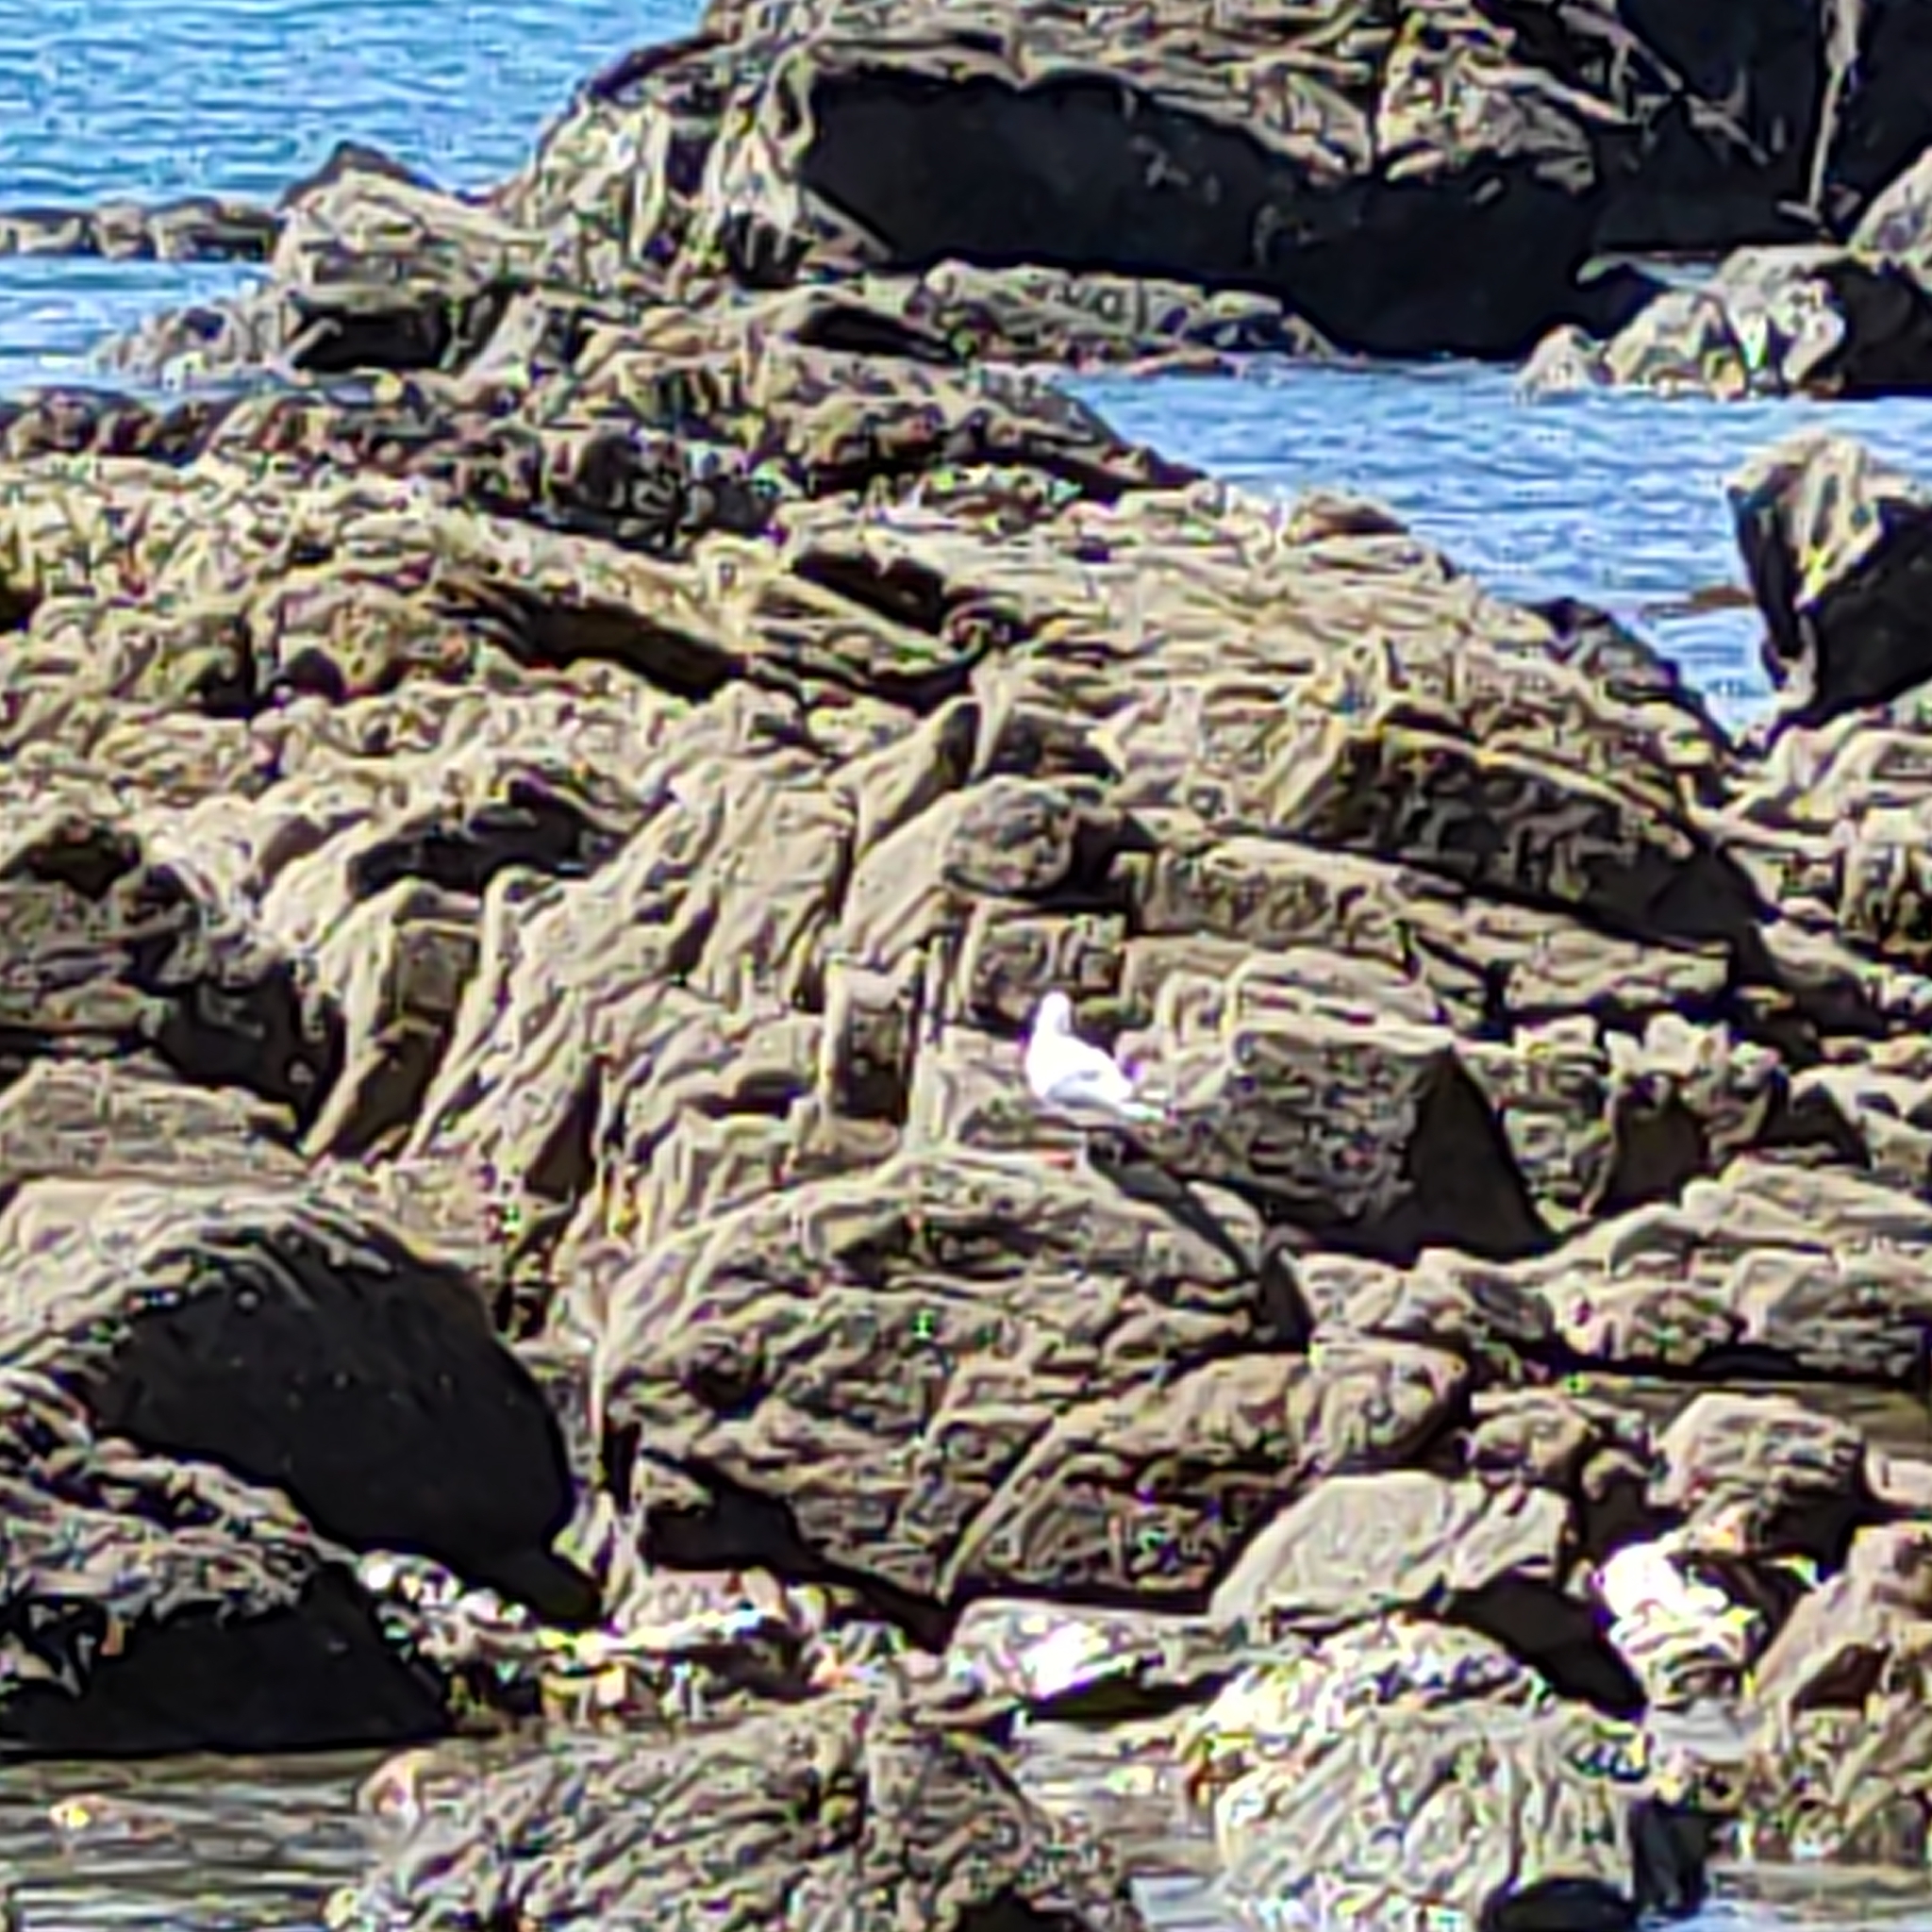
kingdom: Animalia
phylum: Chordata
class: Aves
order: Charadriiformes
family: Laridae
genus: Chroicocephalus
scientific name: Chroicocephalus novaehollandiae
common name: Silver gull
